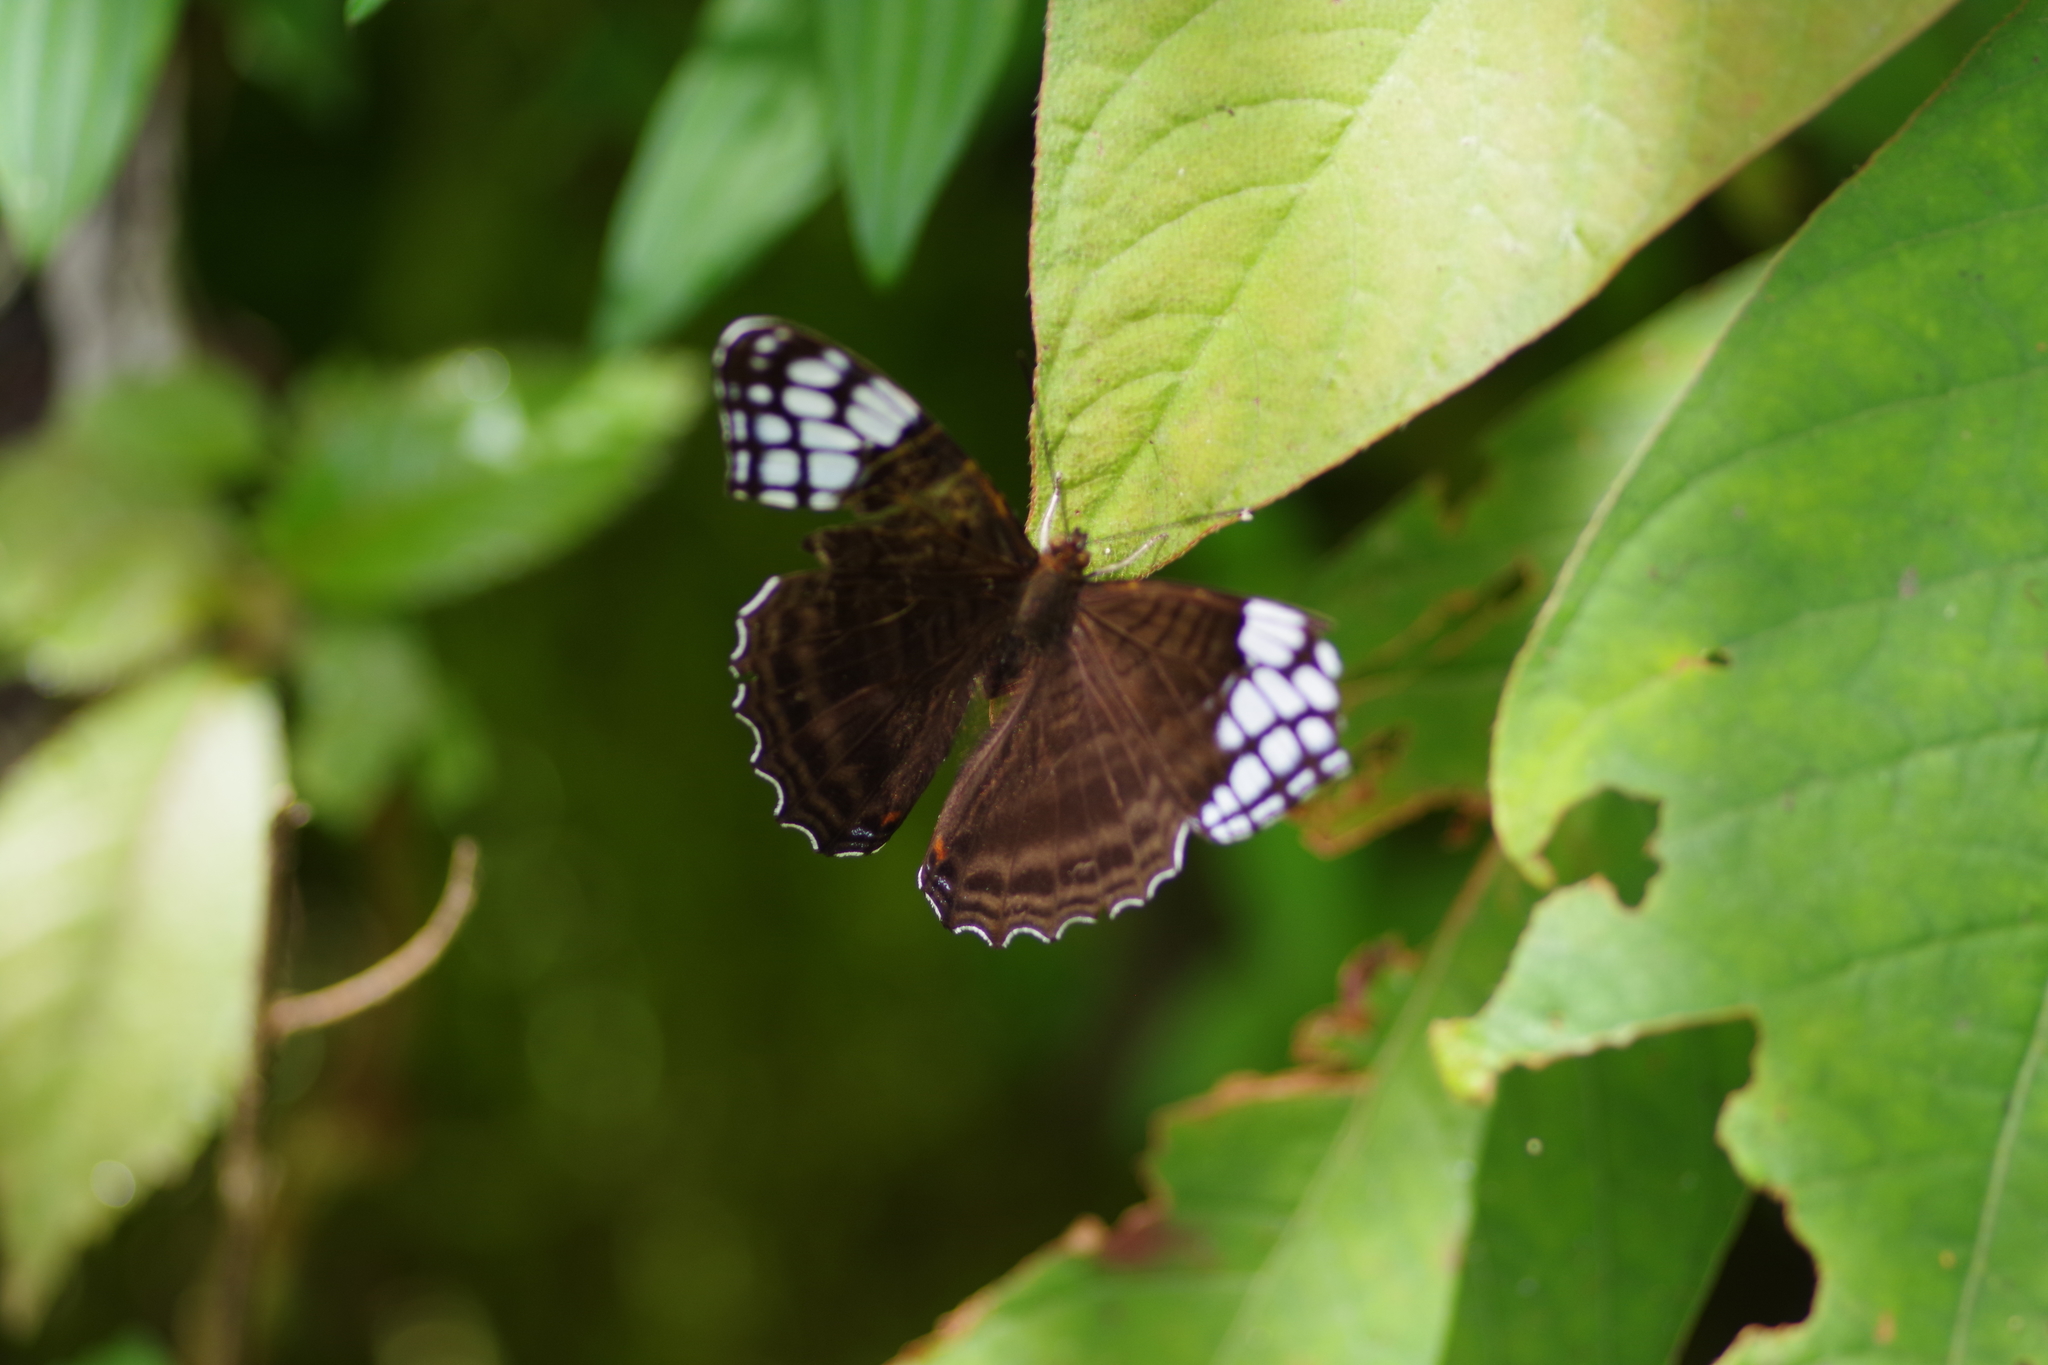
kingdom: Animalia
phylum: Arthropoda
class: Insecta
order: Lepidoptera
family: Nymphalidae
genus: Limenitis
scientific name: Limenitis Adelpha demialba
